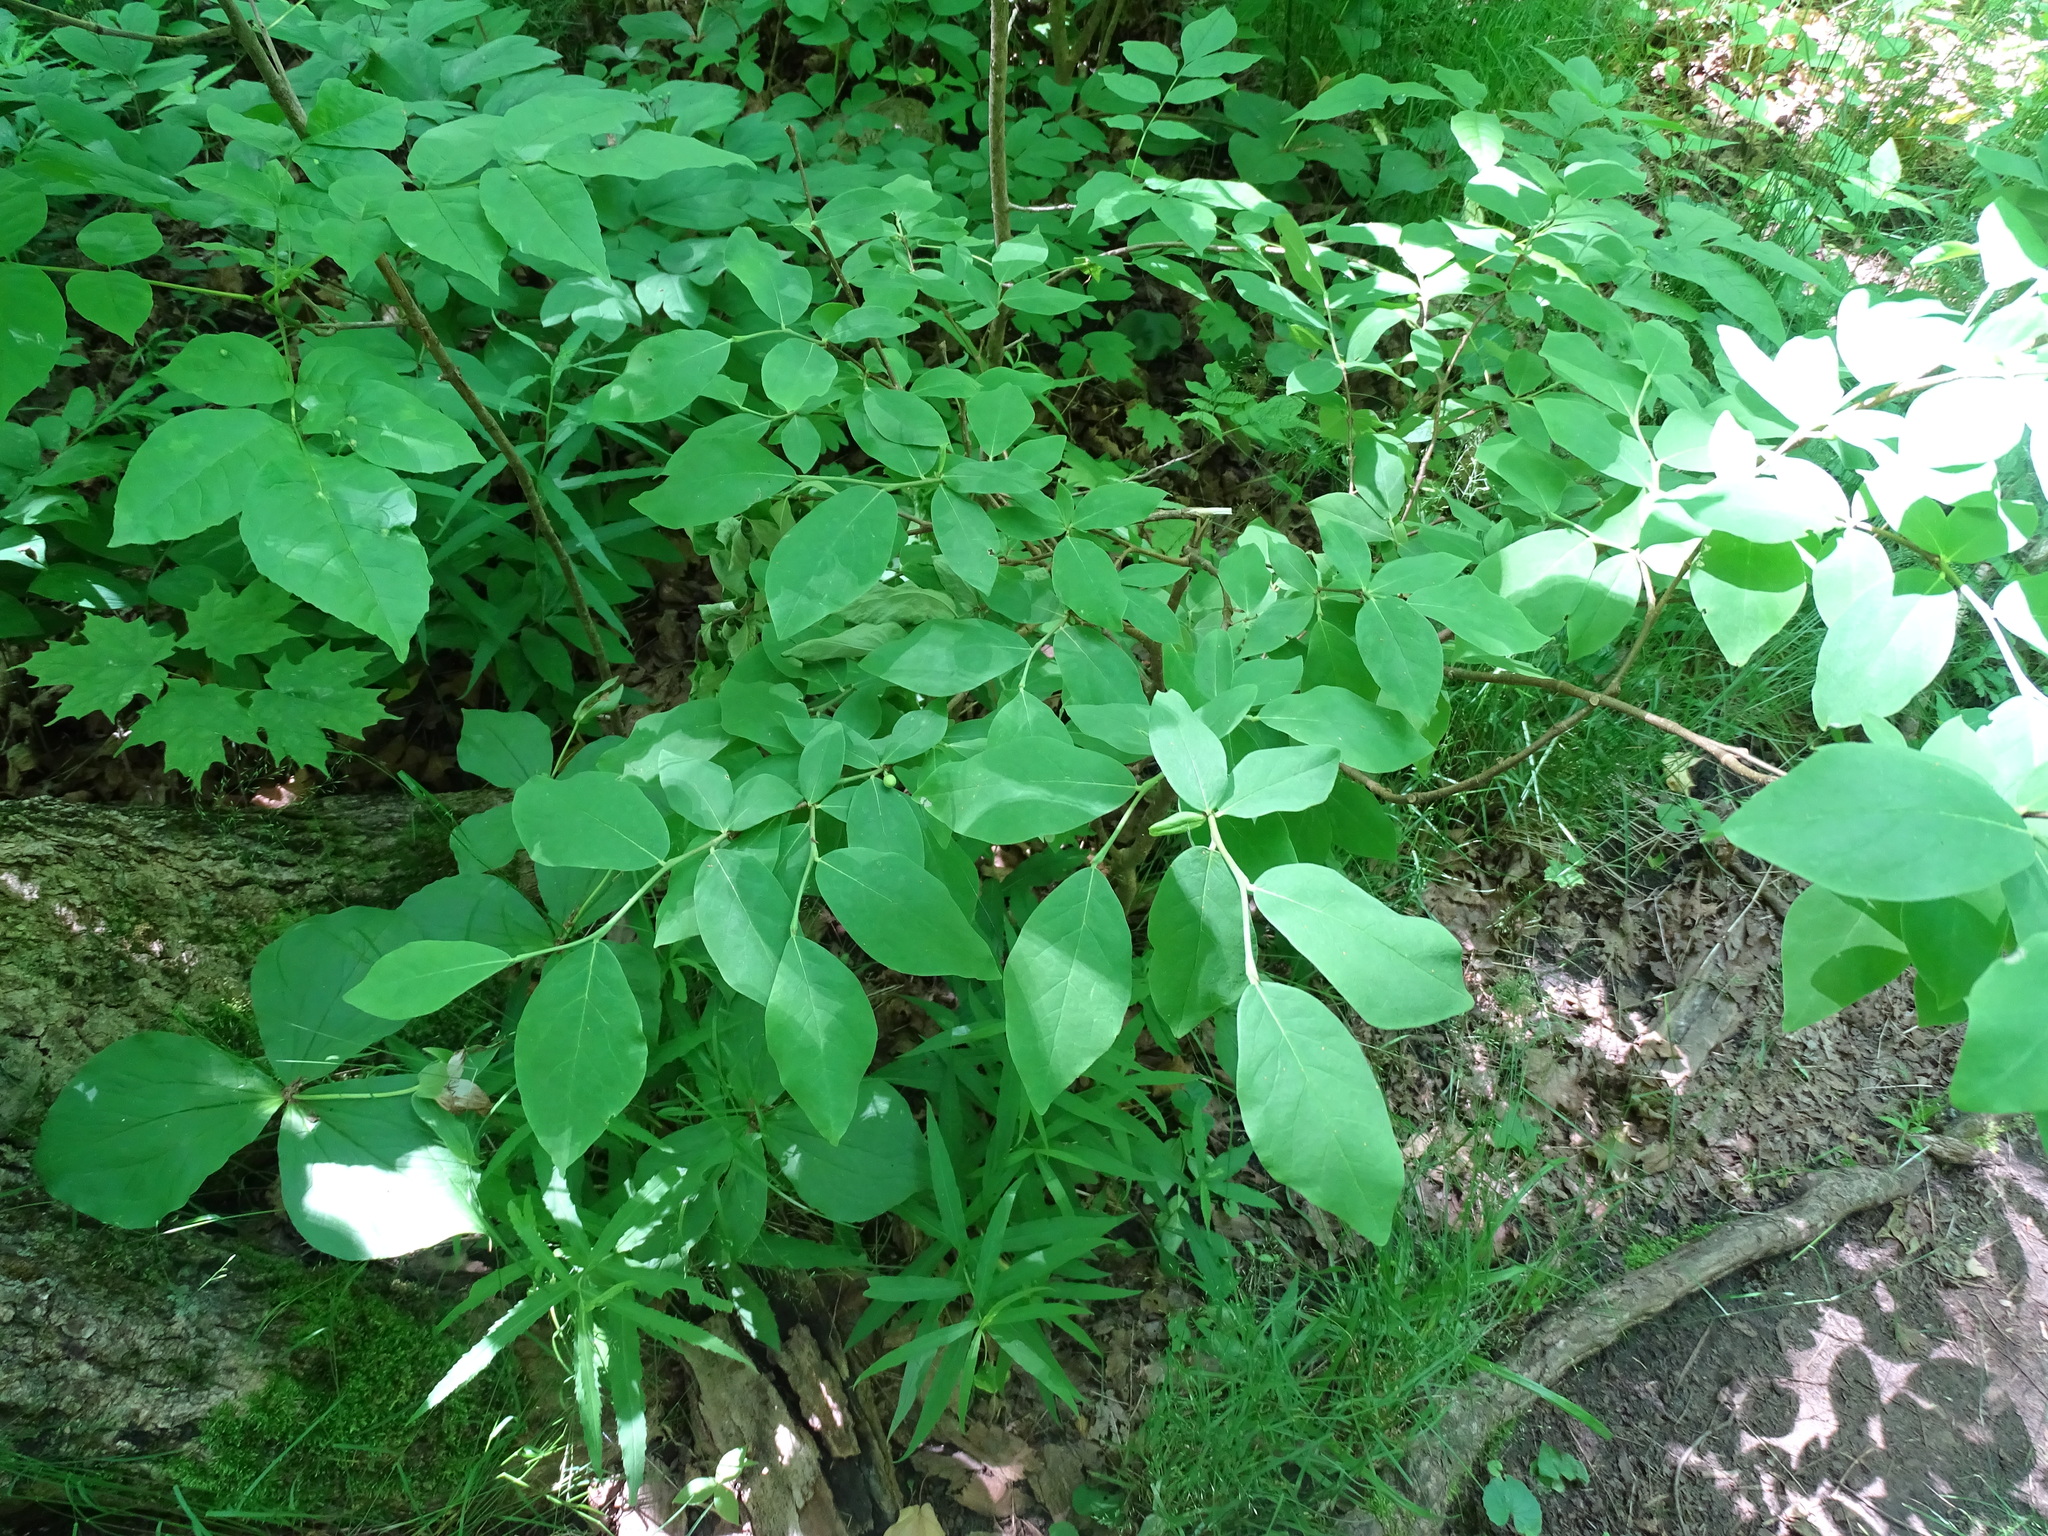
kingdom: Plantae
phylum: Tracheophyta
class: Magnoliopsida
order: Malvales
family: Thymelaeaceae
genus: Dirca
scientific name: Dirca palustris
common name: Leatherwood
